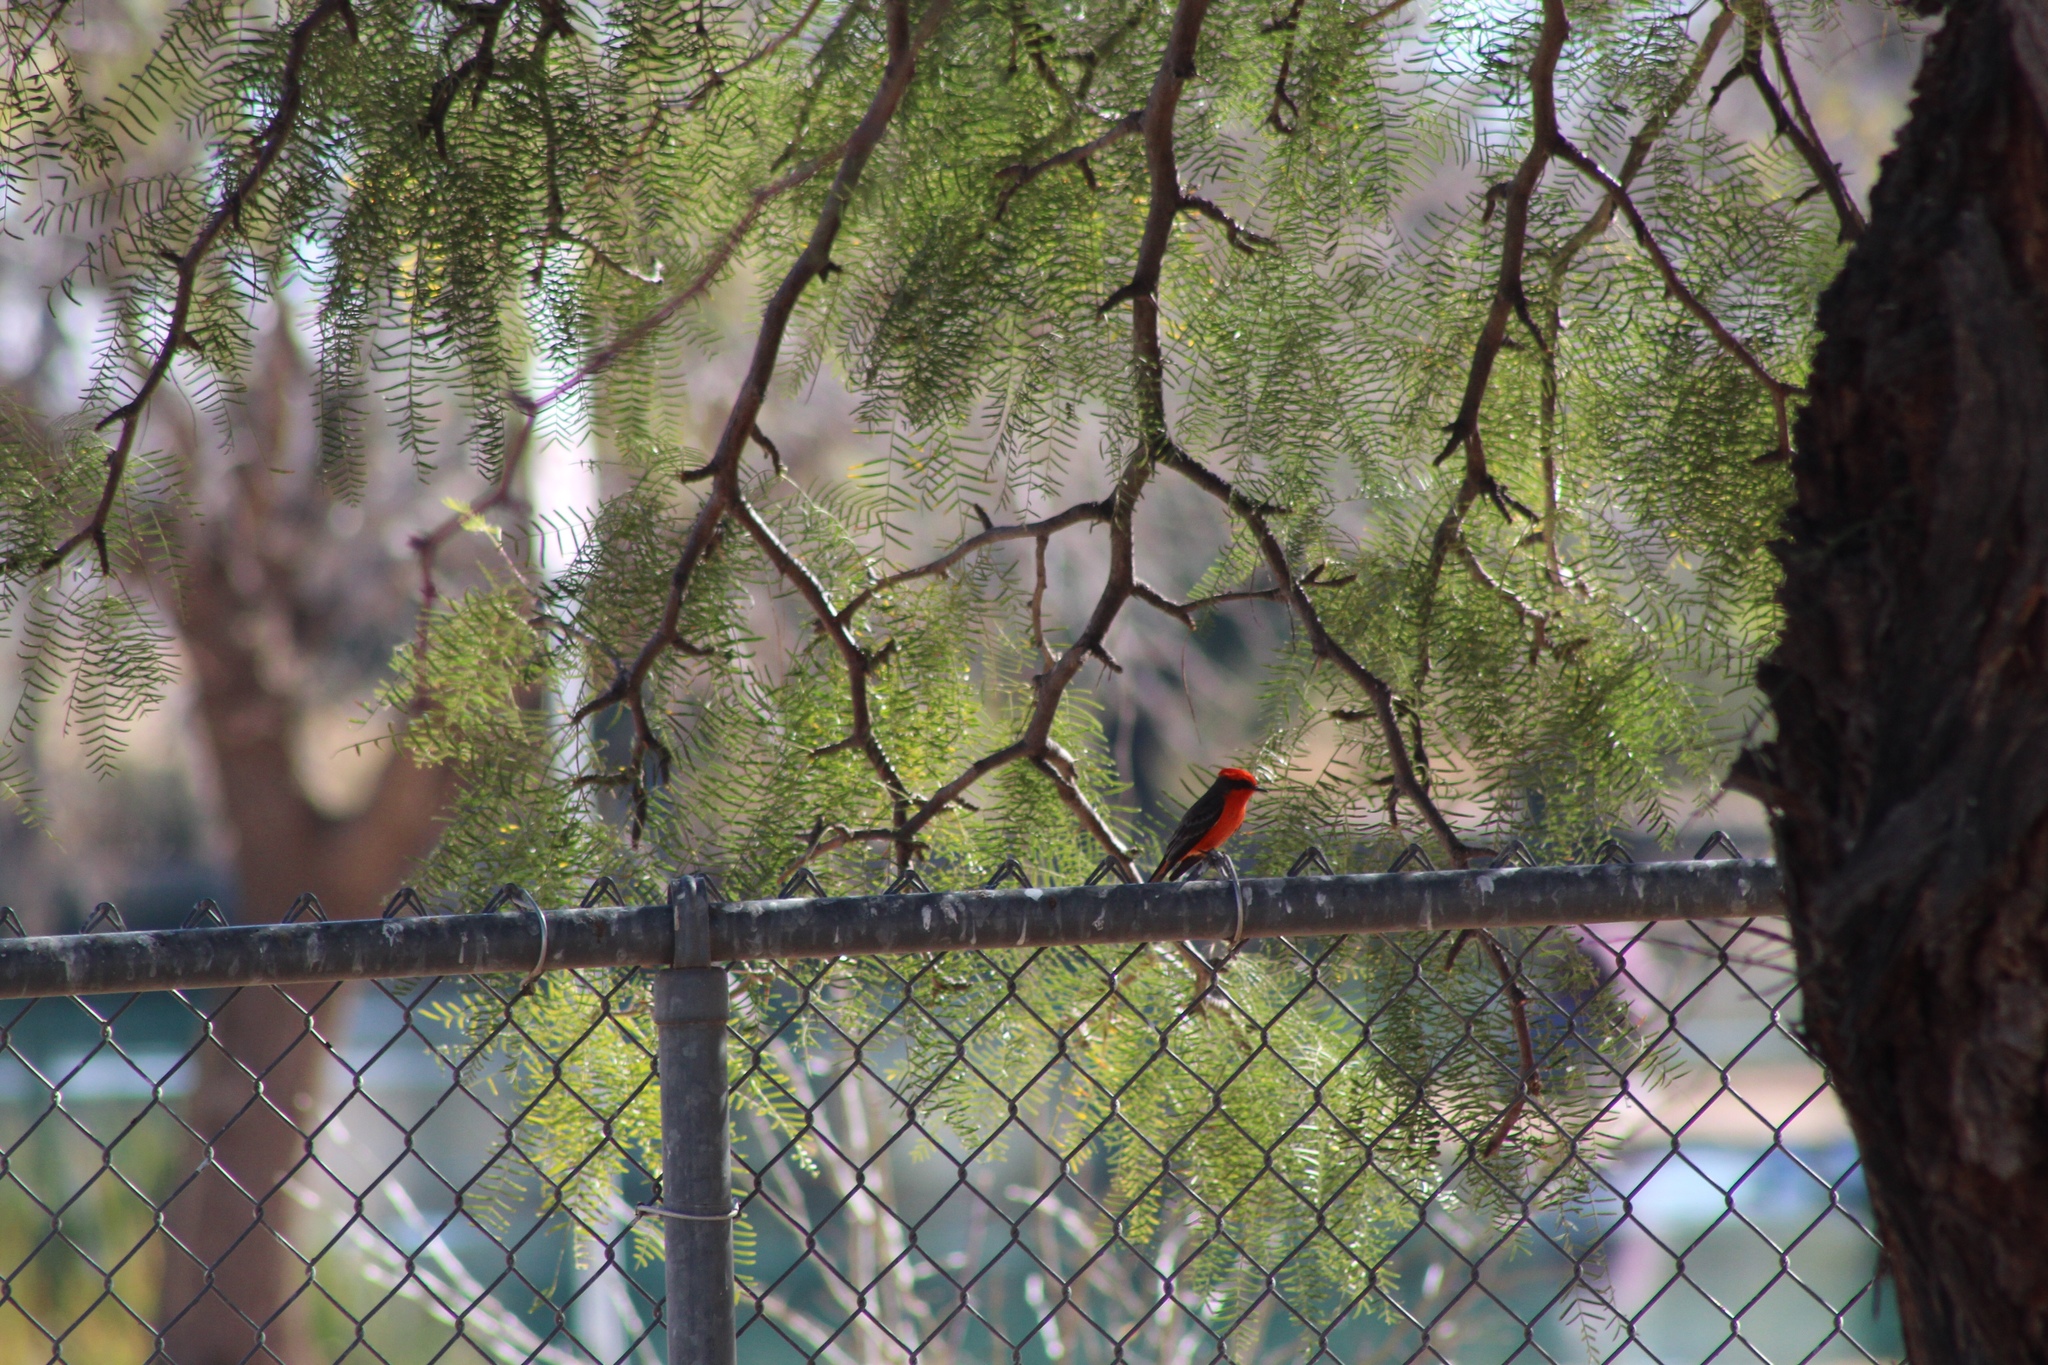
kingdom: Animalia
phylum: Chordata
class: Aves
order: Passeriformes
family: Tyrannidae
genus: Pyrocephalus
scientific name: Pyrocephalus rubinus
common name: Vermilion flycatcher
